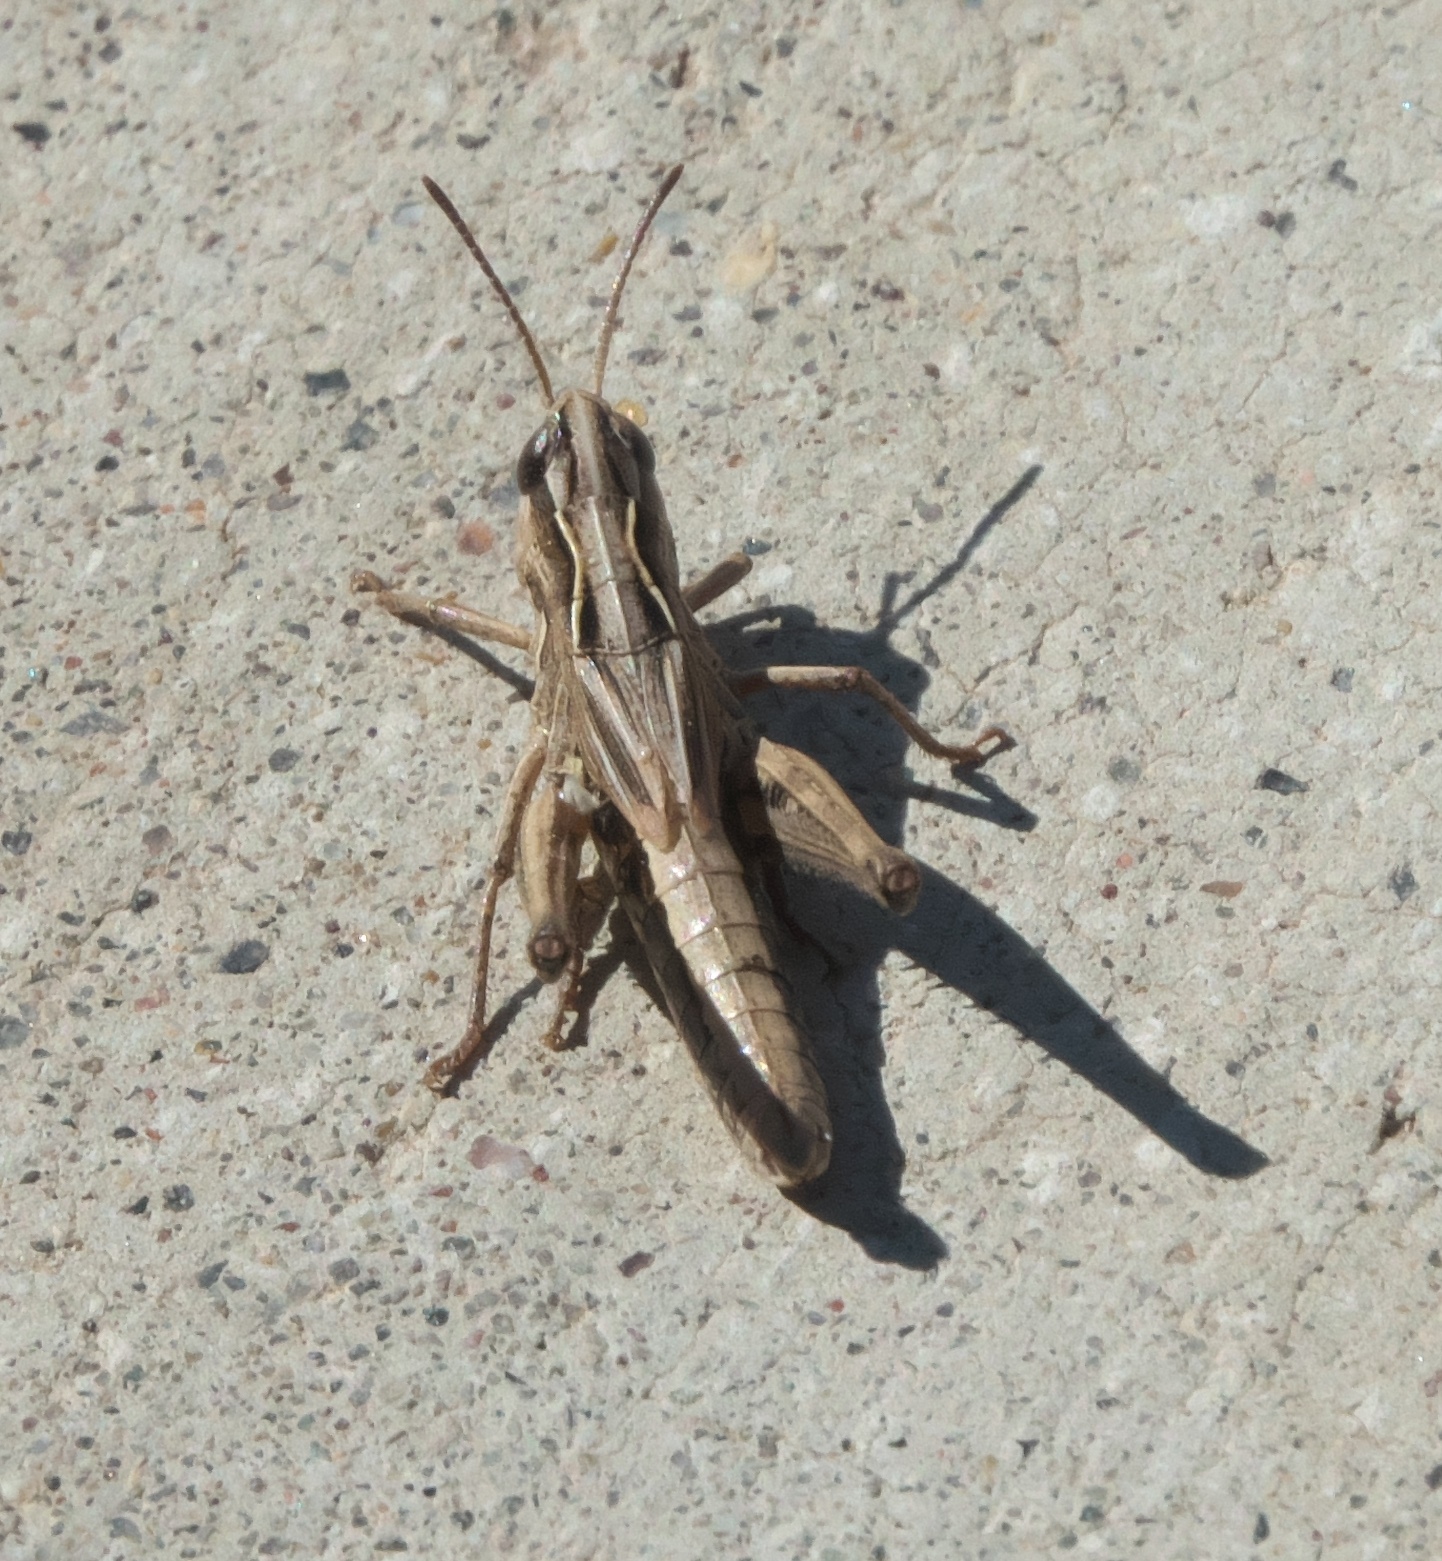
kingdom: Animalia
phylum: Arthropoda
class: Insecta
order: Orthoptera
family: Acrididae
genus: Aeropedellus
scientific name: Aeropedellus clavatus
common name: Clubhorned grasshopper
